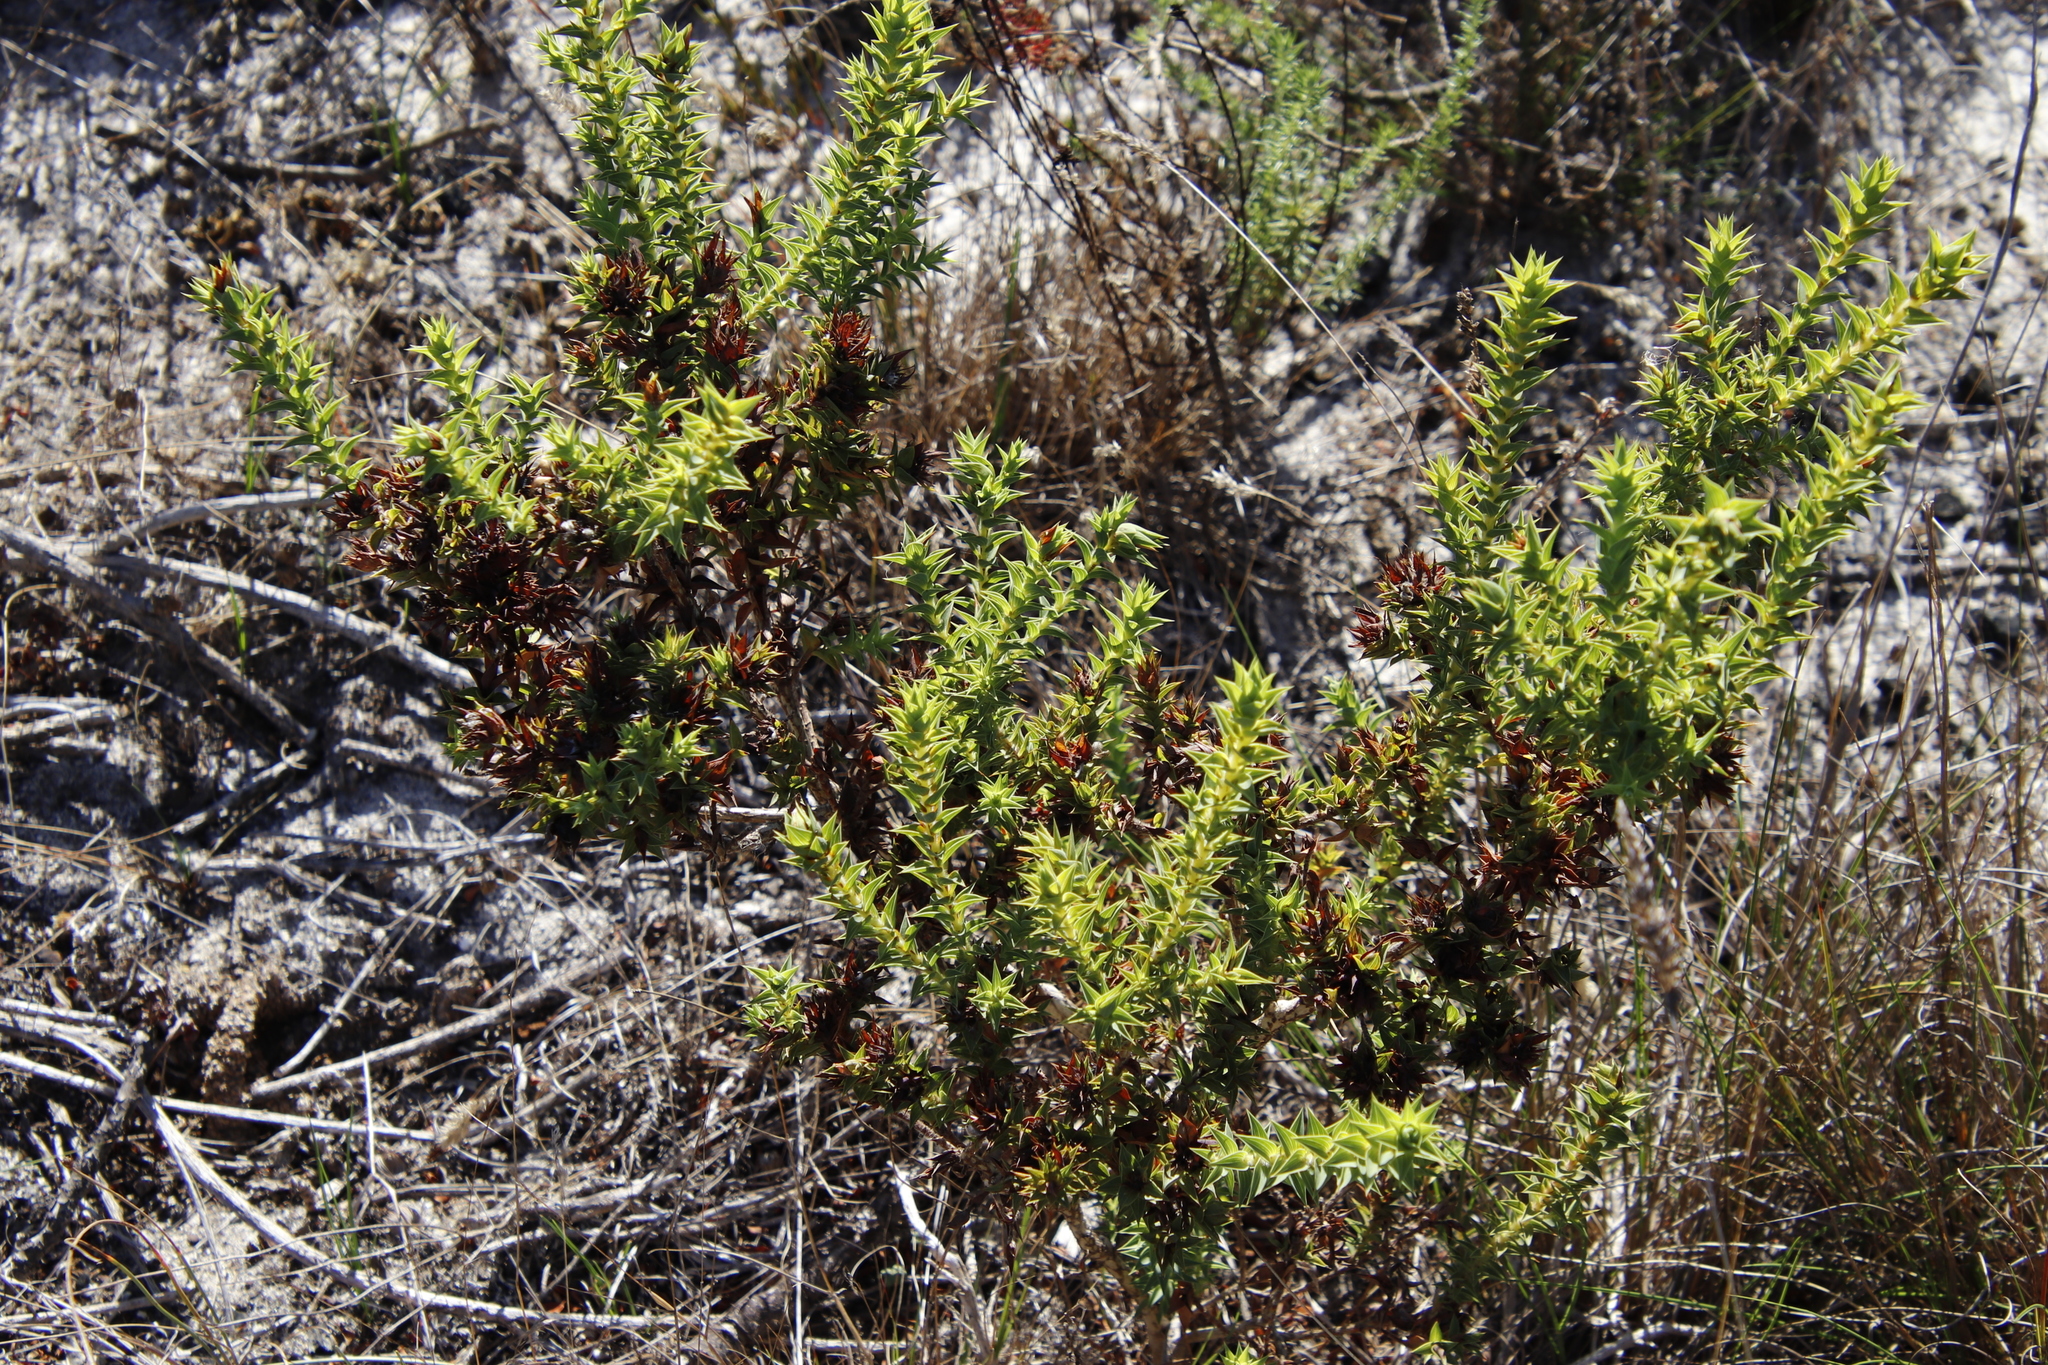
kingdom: Plantae
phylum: Tracheophyta
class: Magnoliopsida
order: Fabales
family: Fabaceae
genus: Aspalathus
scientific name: Aspalathus cordata
